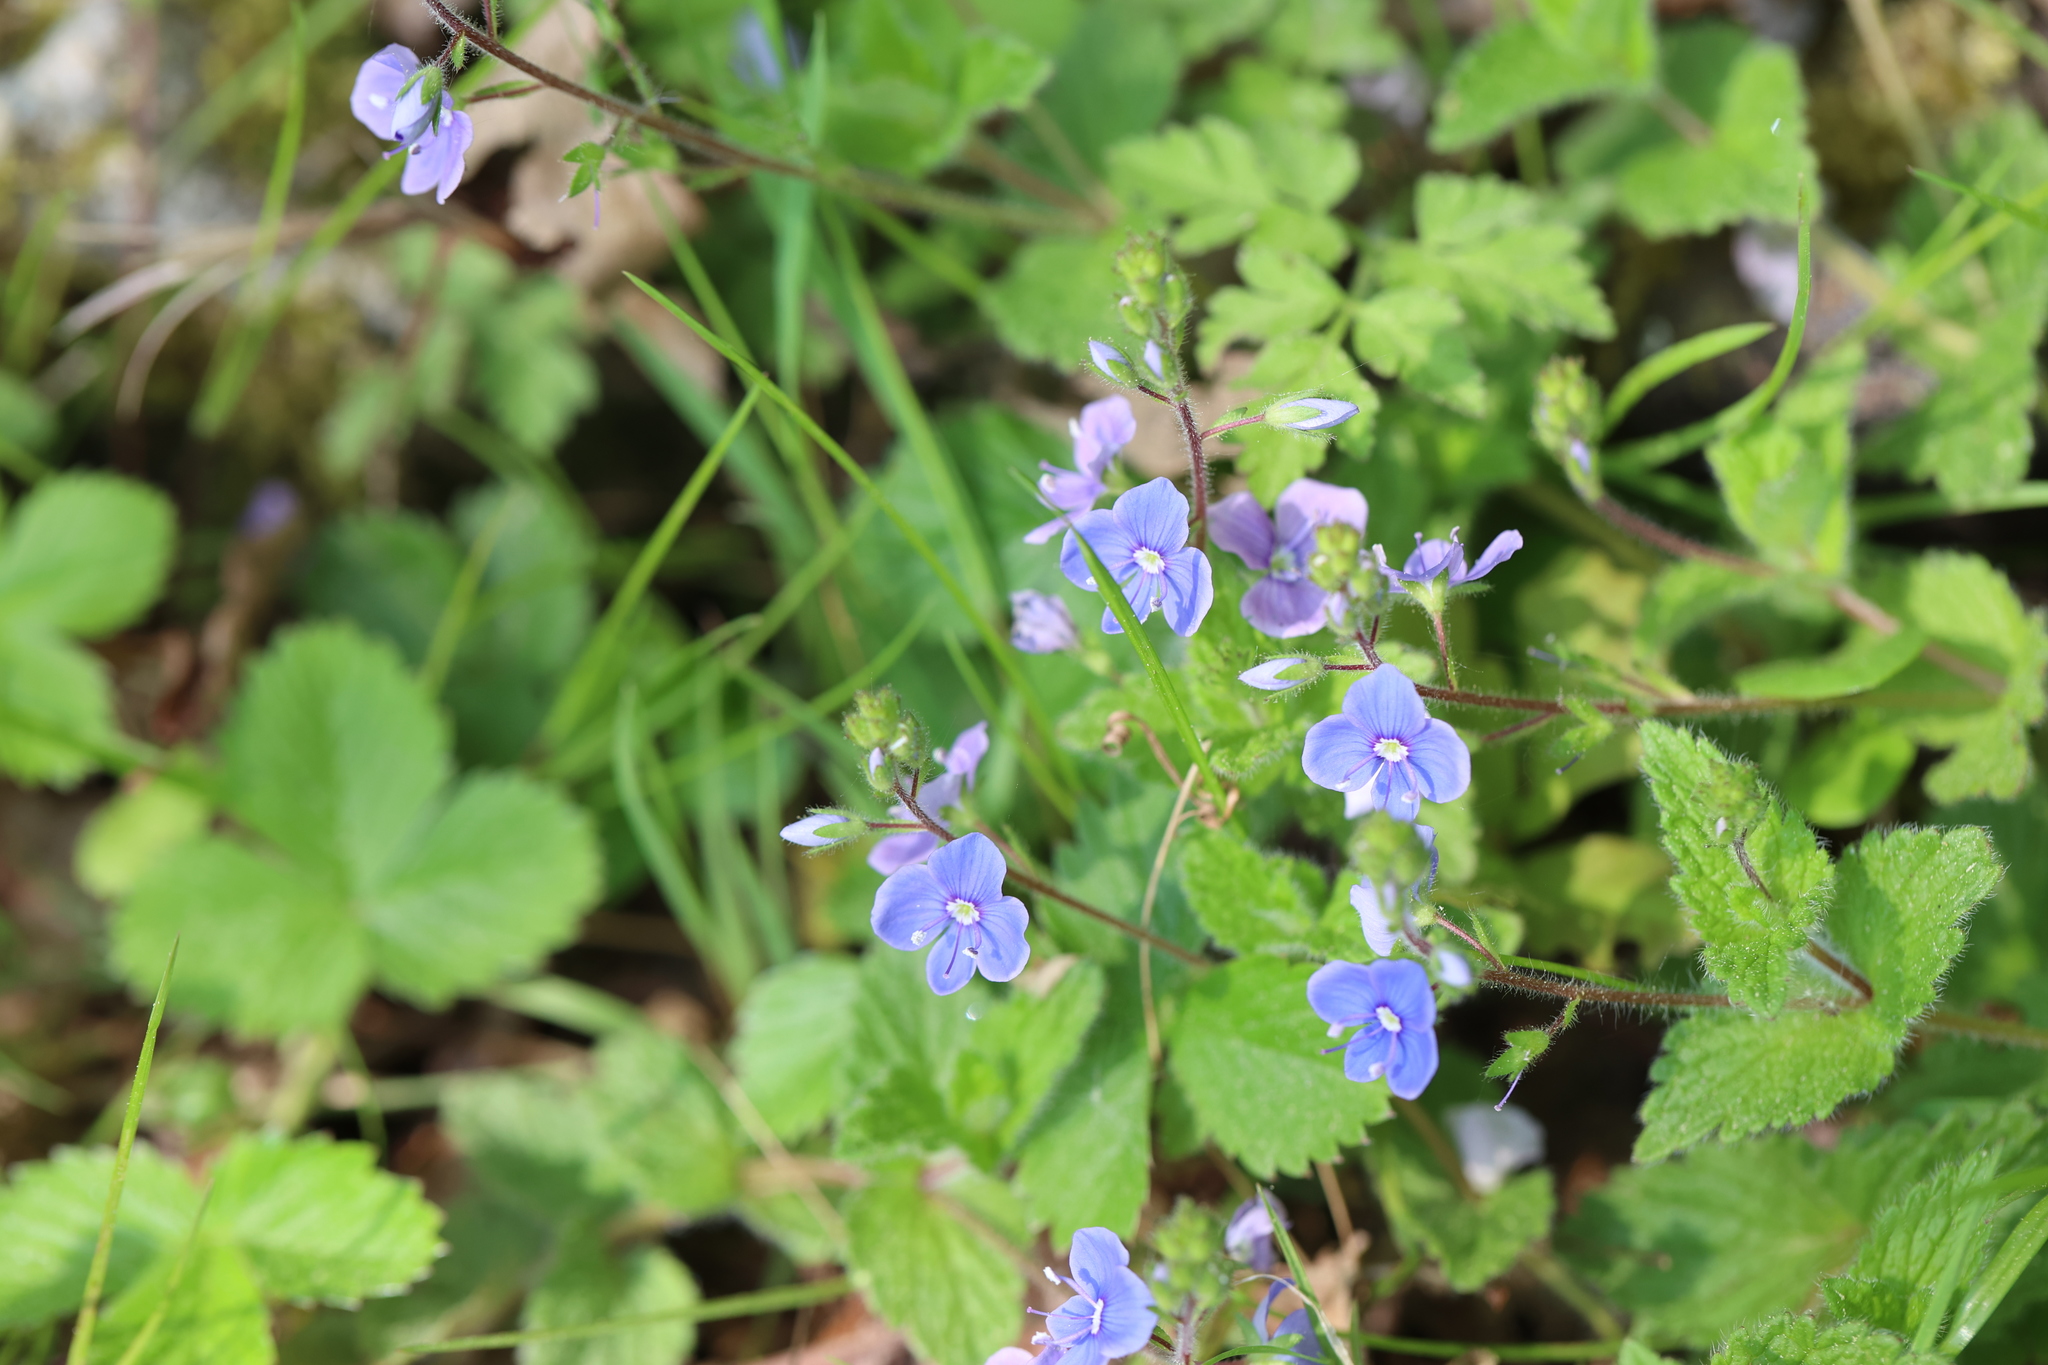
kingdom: Plantae
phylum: Tracheophyta
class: Magnoliopsida
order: Lamiales
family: Plantaginaceae
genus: Veronica
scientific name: Veronica chamaedrys
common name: Germander speedwell
